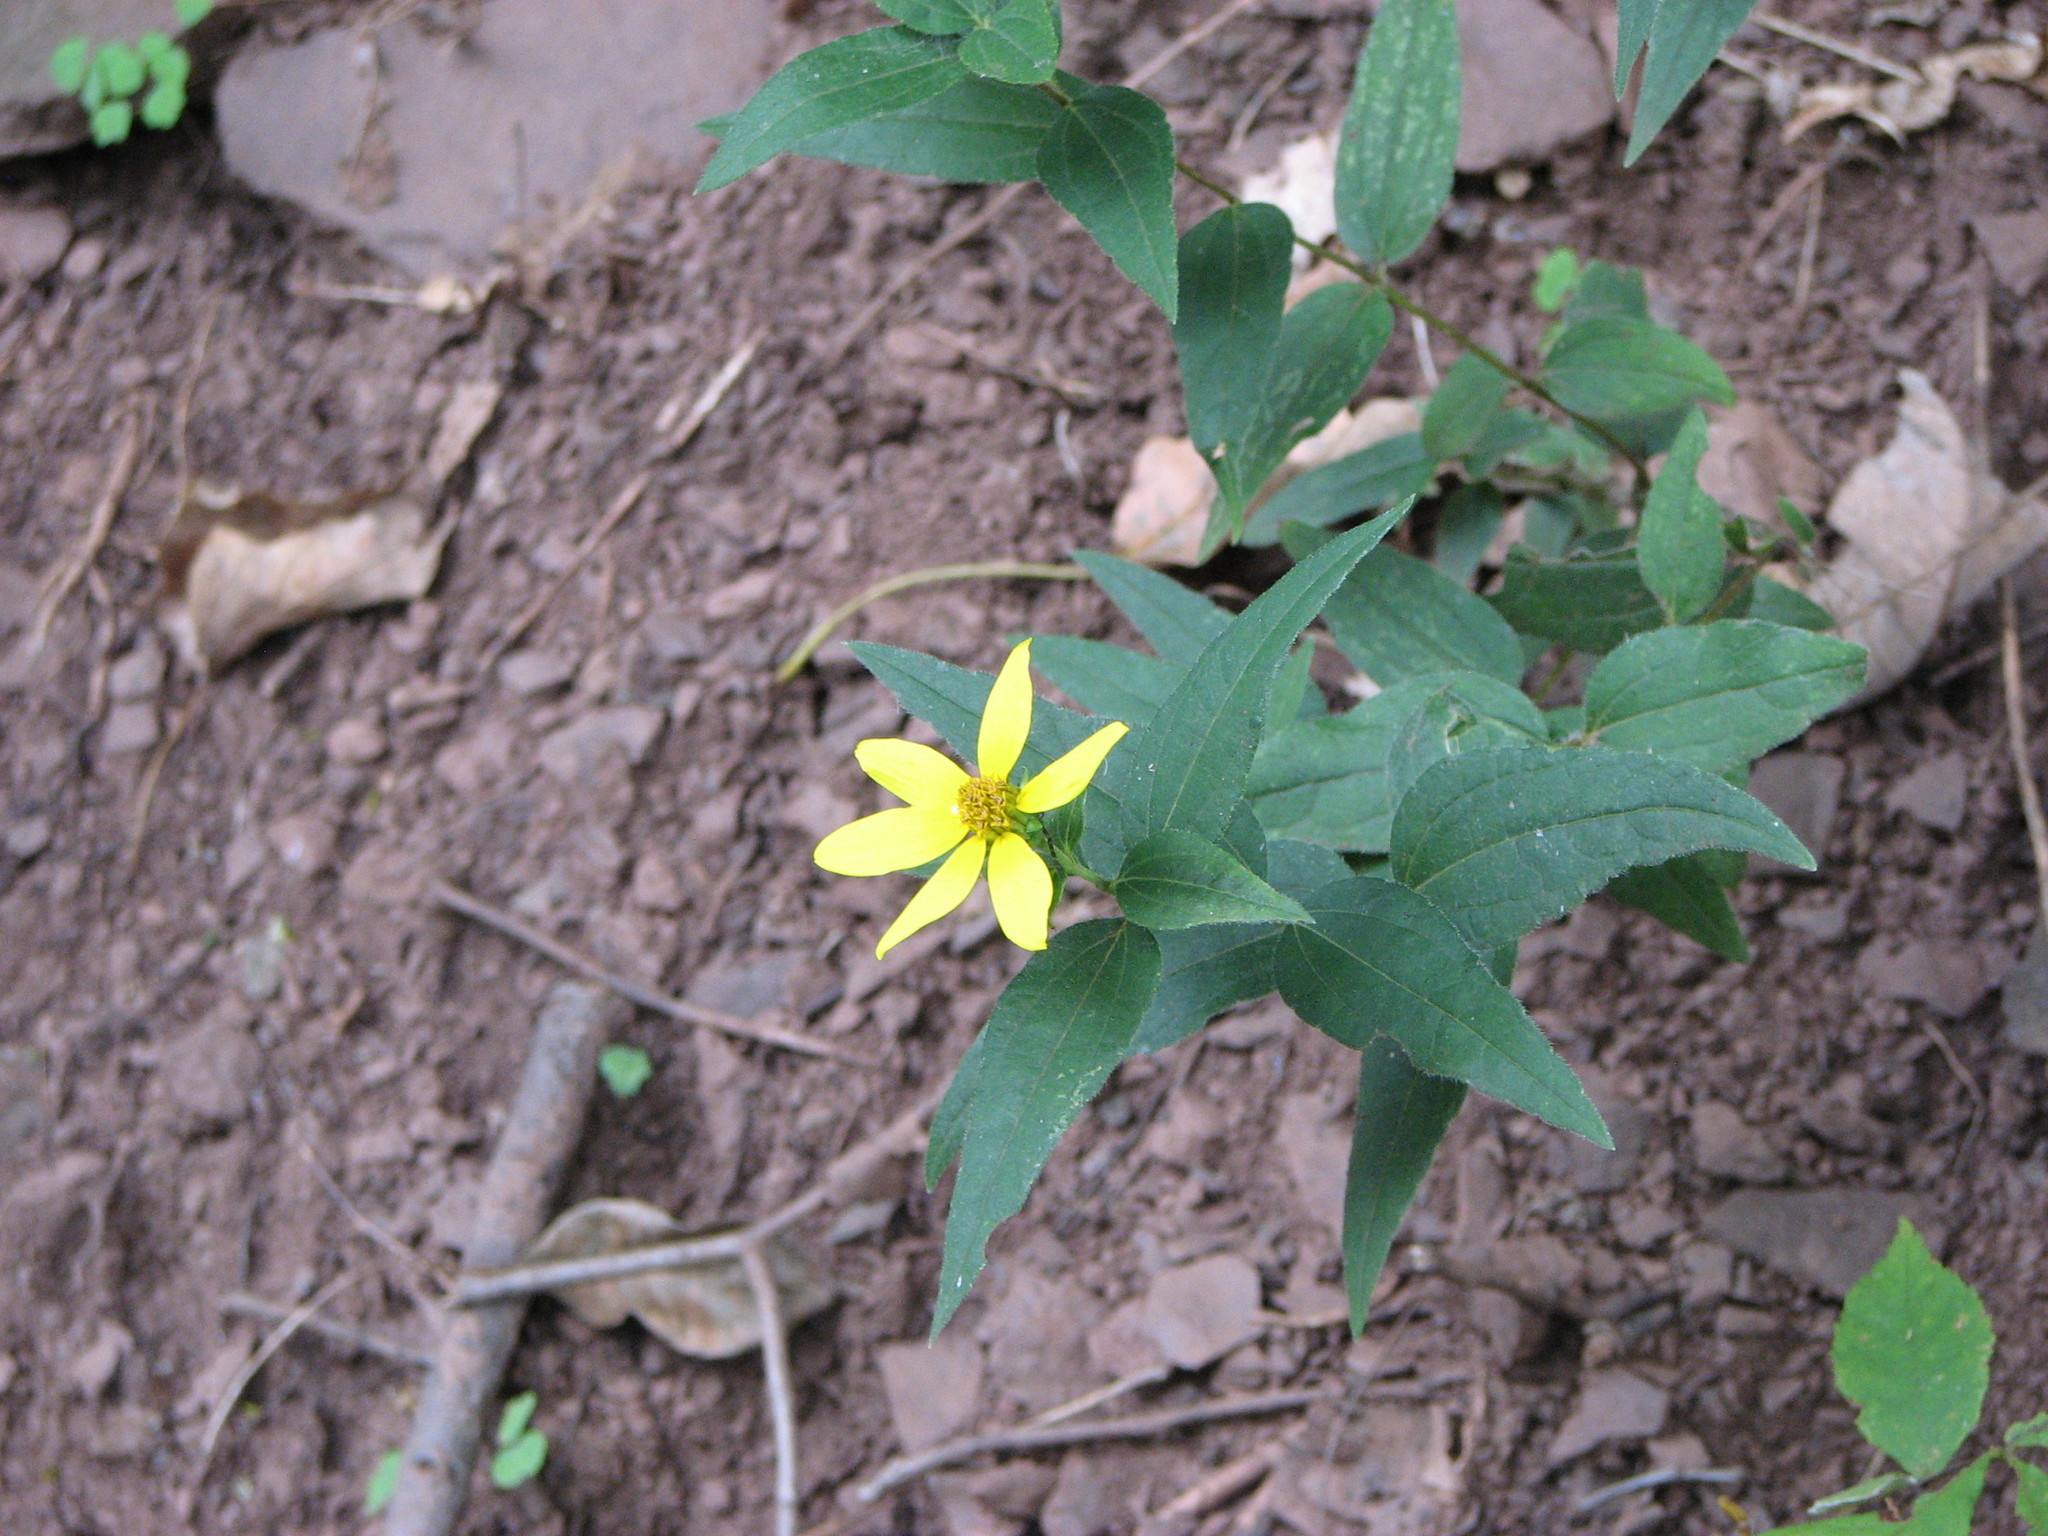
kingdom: Plantae
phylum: Tracheophyta
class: Magnoliopsida
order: Asterales
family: Asteraceae
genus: Helianthus
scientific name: Helianthus divaricatus
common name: Divergent sunflower
